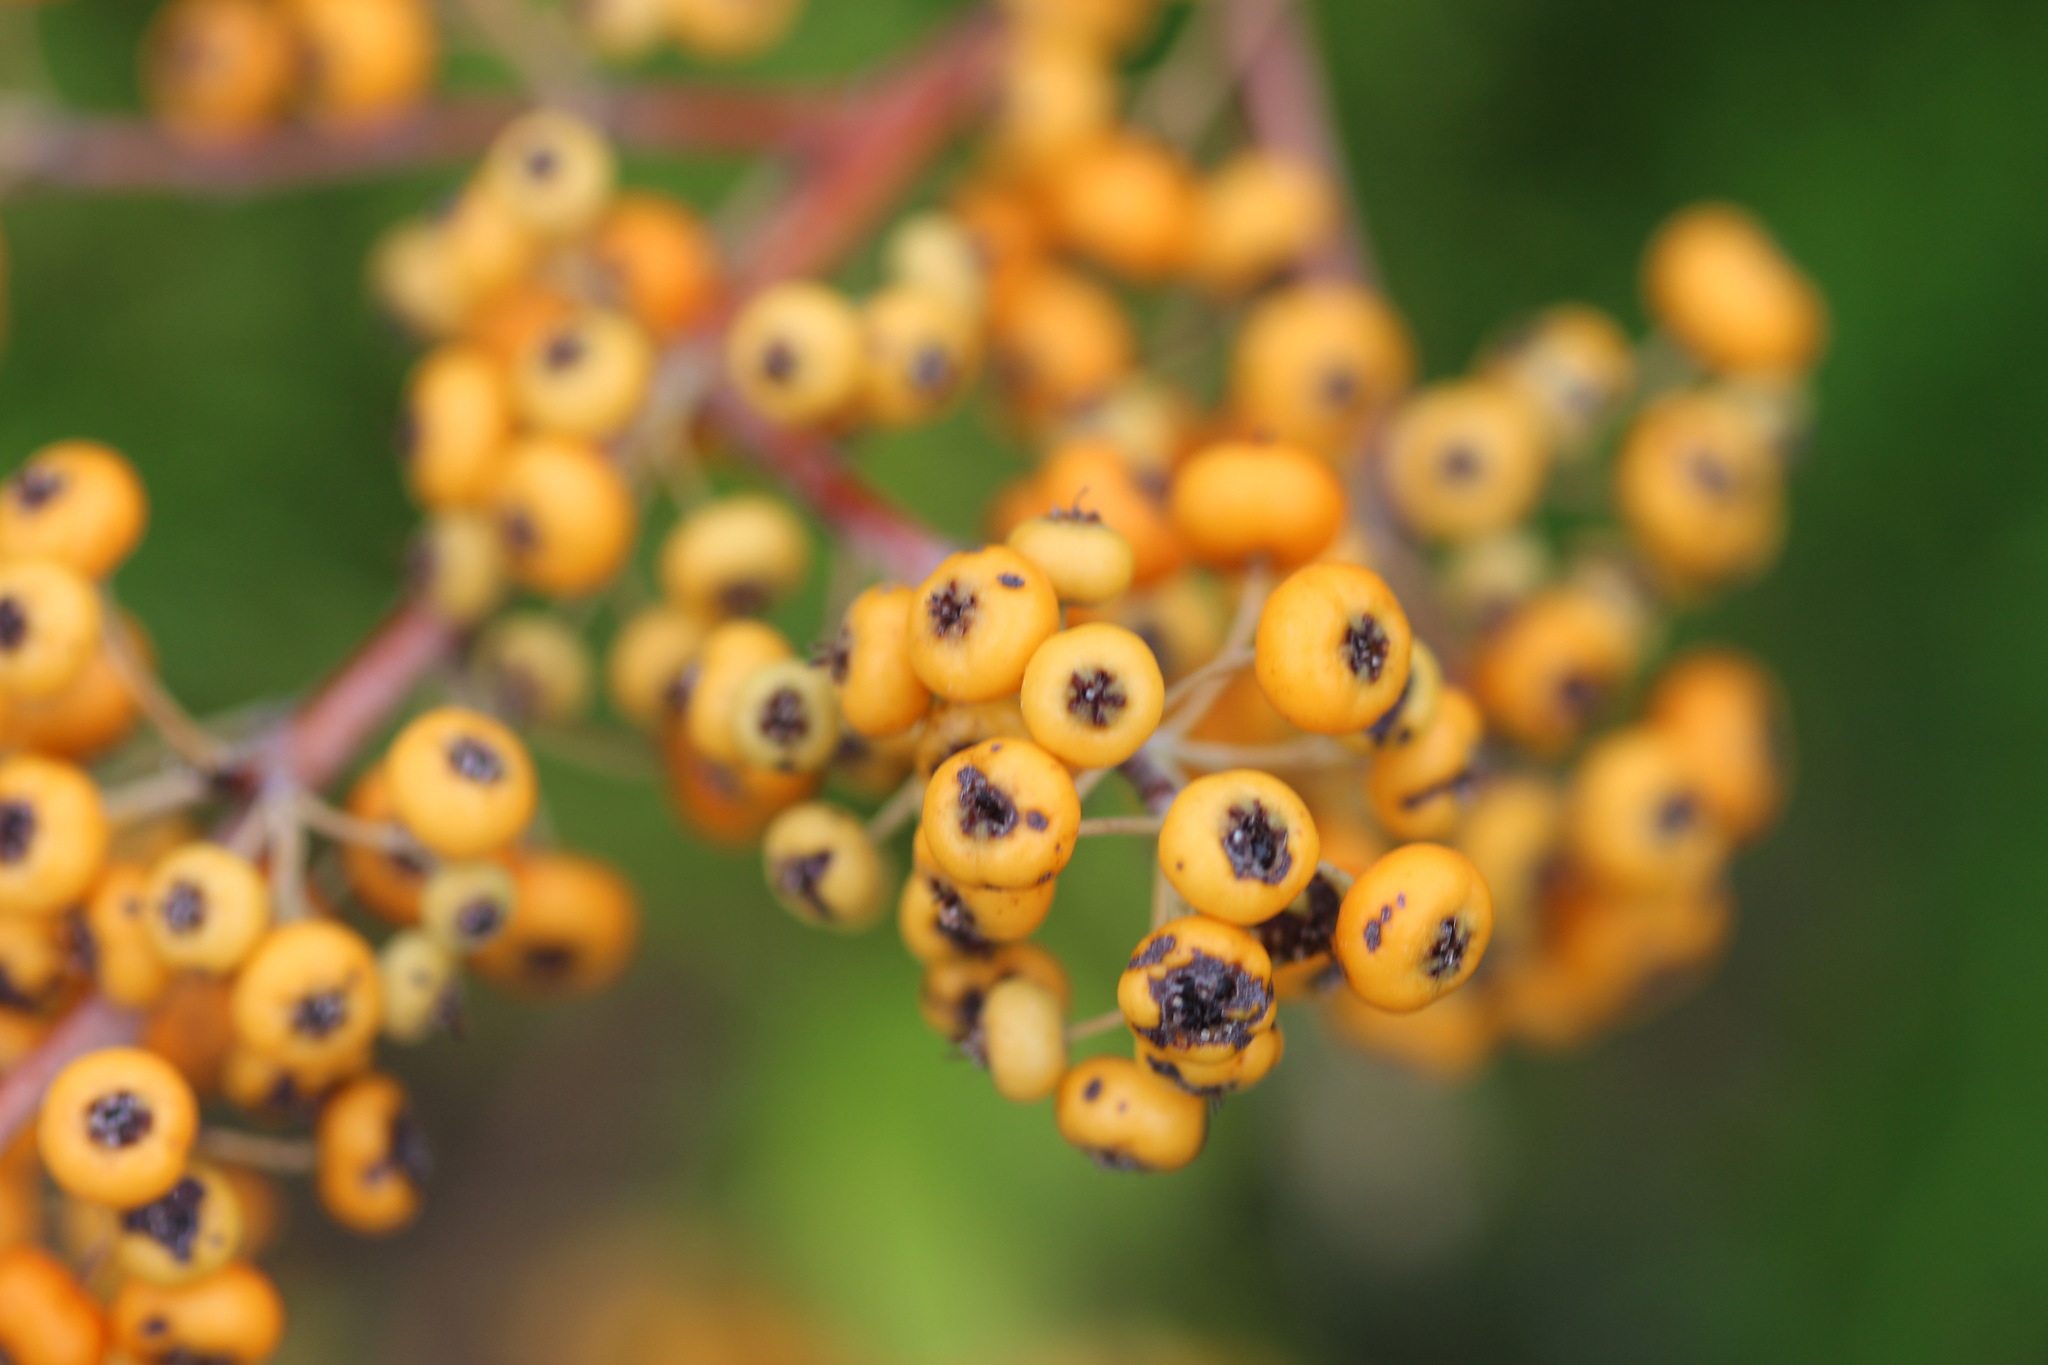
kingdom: Plantae
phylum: Tracheophyta
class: Magnoliopsida
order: Rosales
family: Rosaceae
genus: Pyracantha
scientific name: Pyracantha koidzumii
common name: Formosa firethorn
